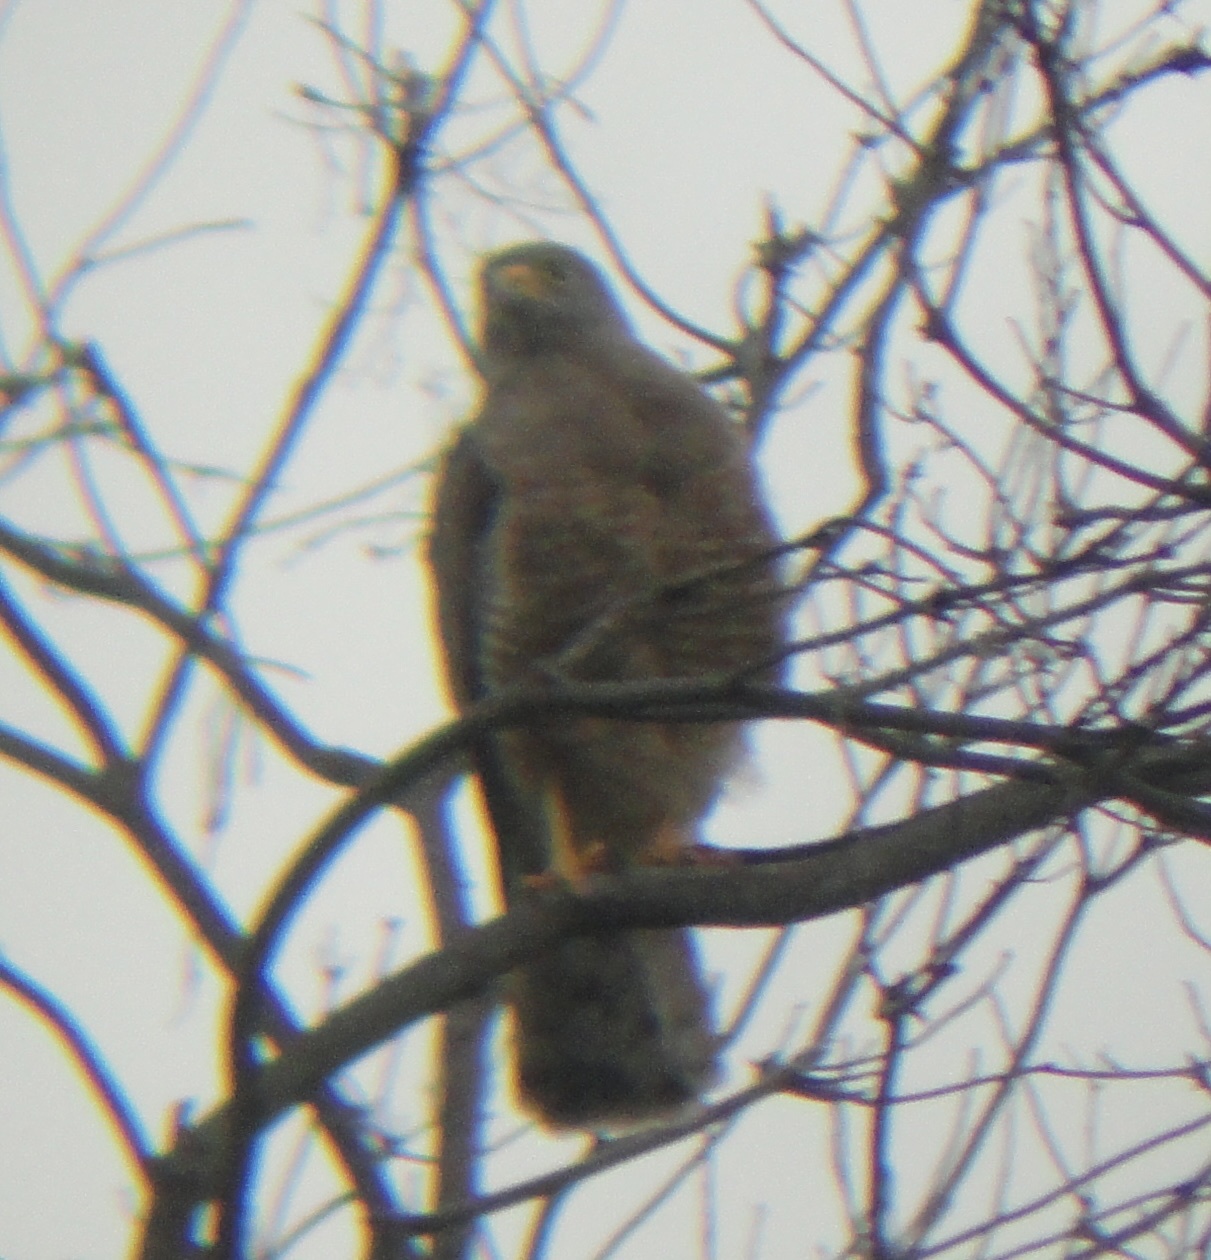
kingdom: Animalia
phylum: Chordata
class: Aves
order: Accipitriformes
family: Accipitridae
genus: Rupornis
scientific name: Rupornis magnirostris
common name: Roadside hawk
